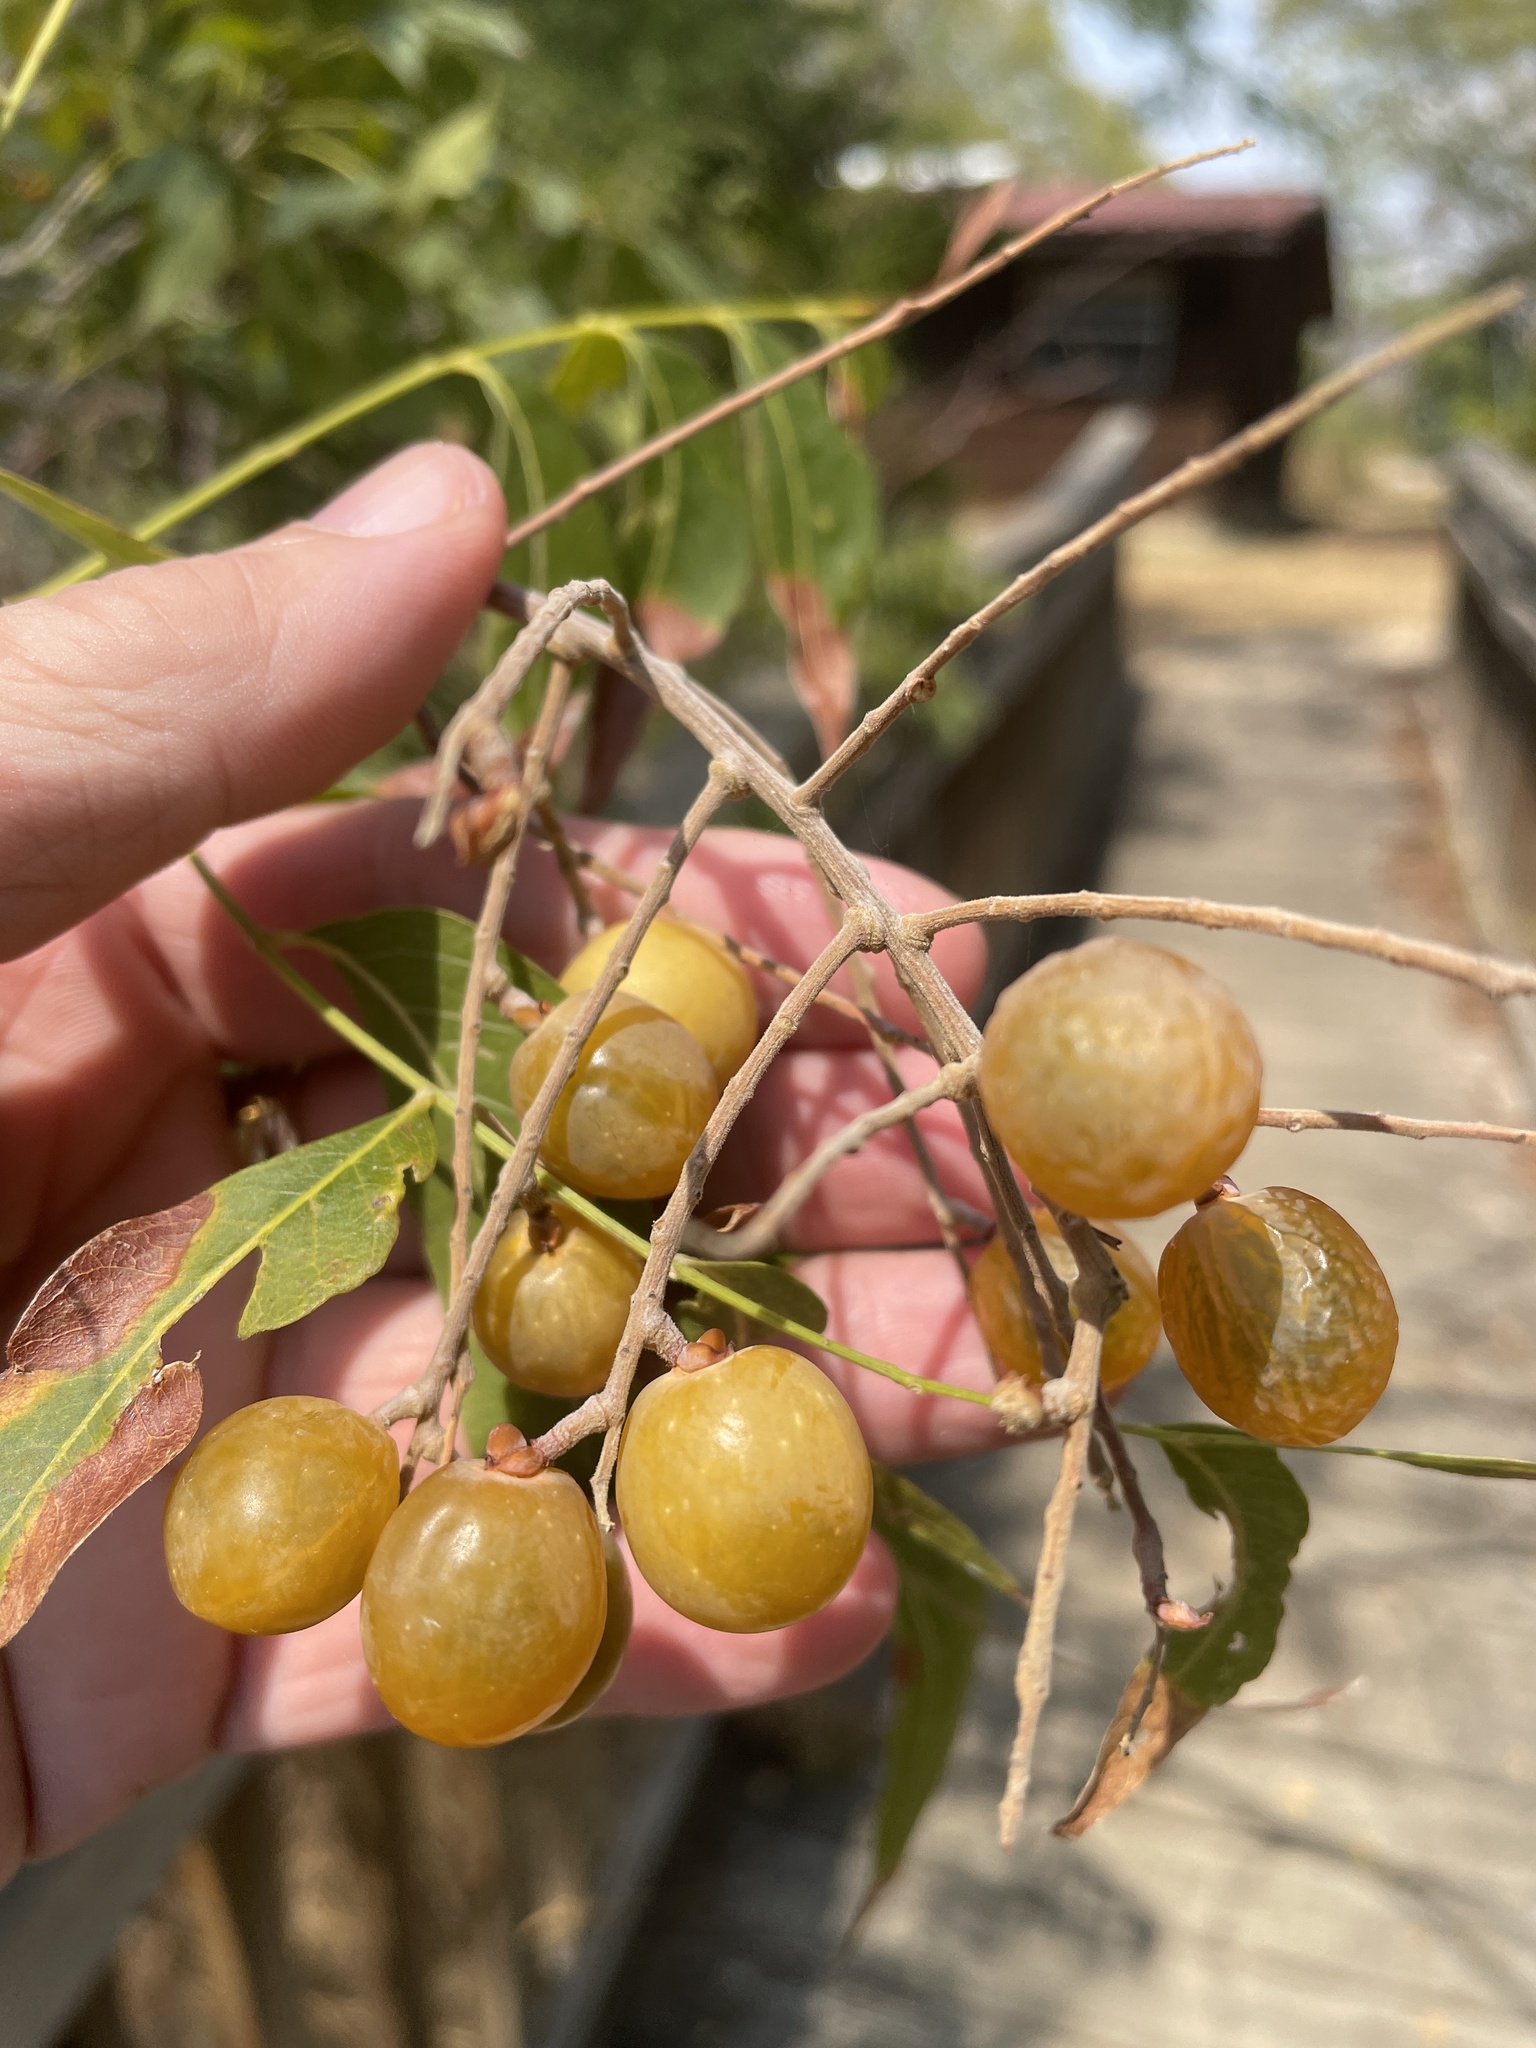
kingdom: Plantae
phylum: Tracheophyta
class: Magnoliopsida
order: Sapindales
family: Sapindaceae
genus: Sapindus
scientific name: Sapindus drummondii
